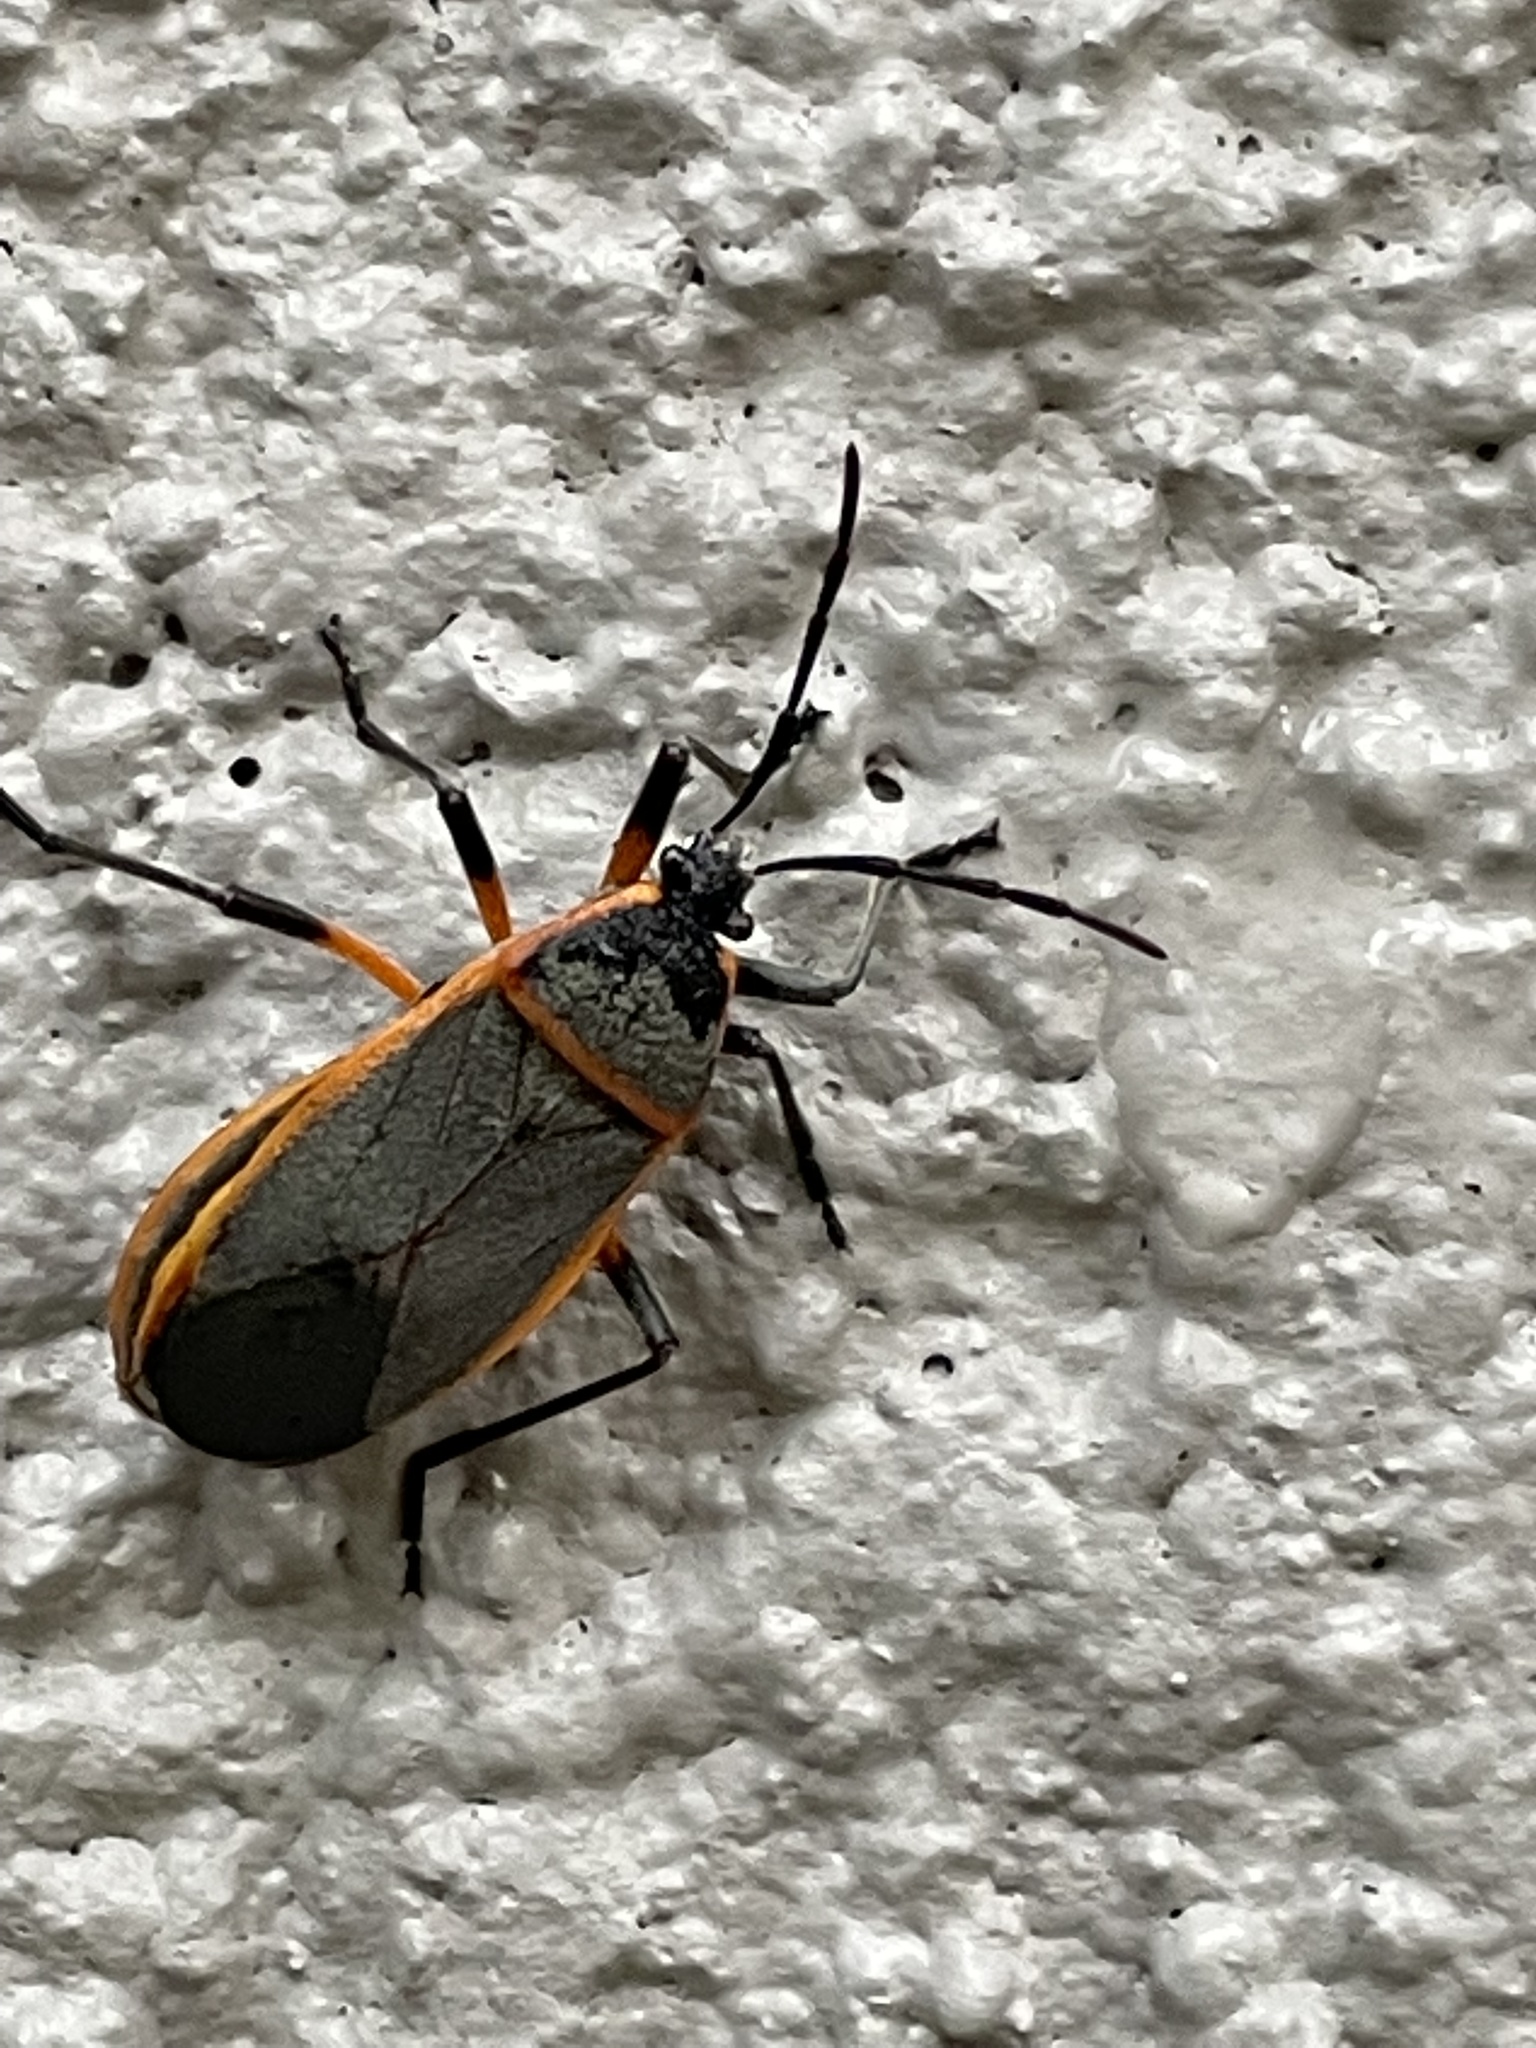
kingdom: Animalia
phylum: Arthropoda
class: Insecta
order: Hemiptera
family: Largidae
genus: Largus
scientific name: Largus succinctus
